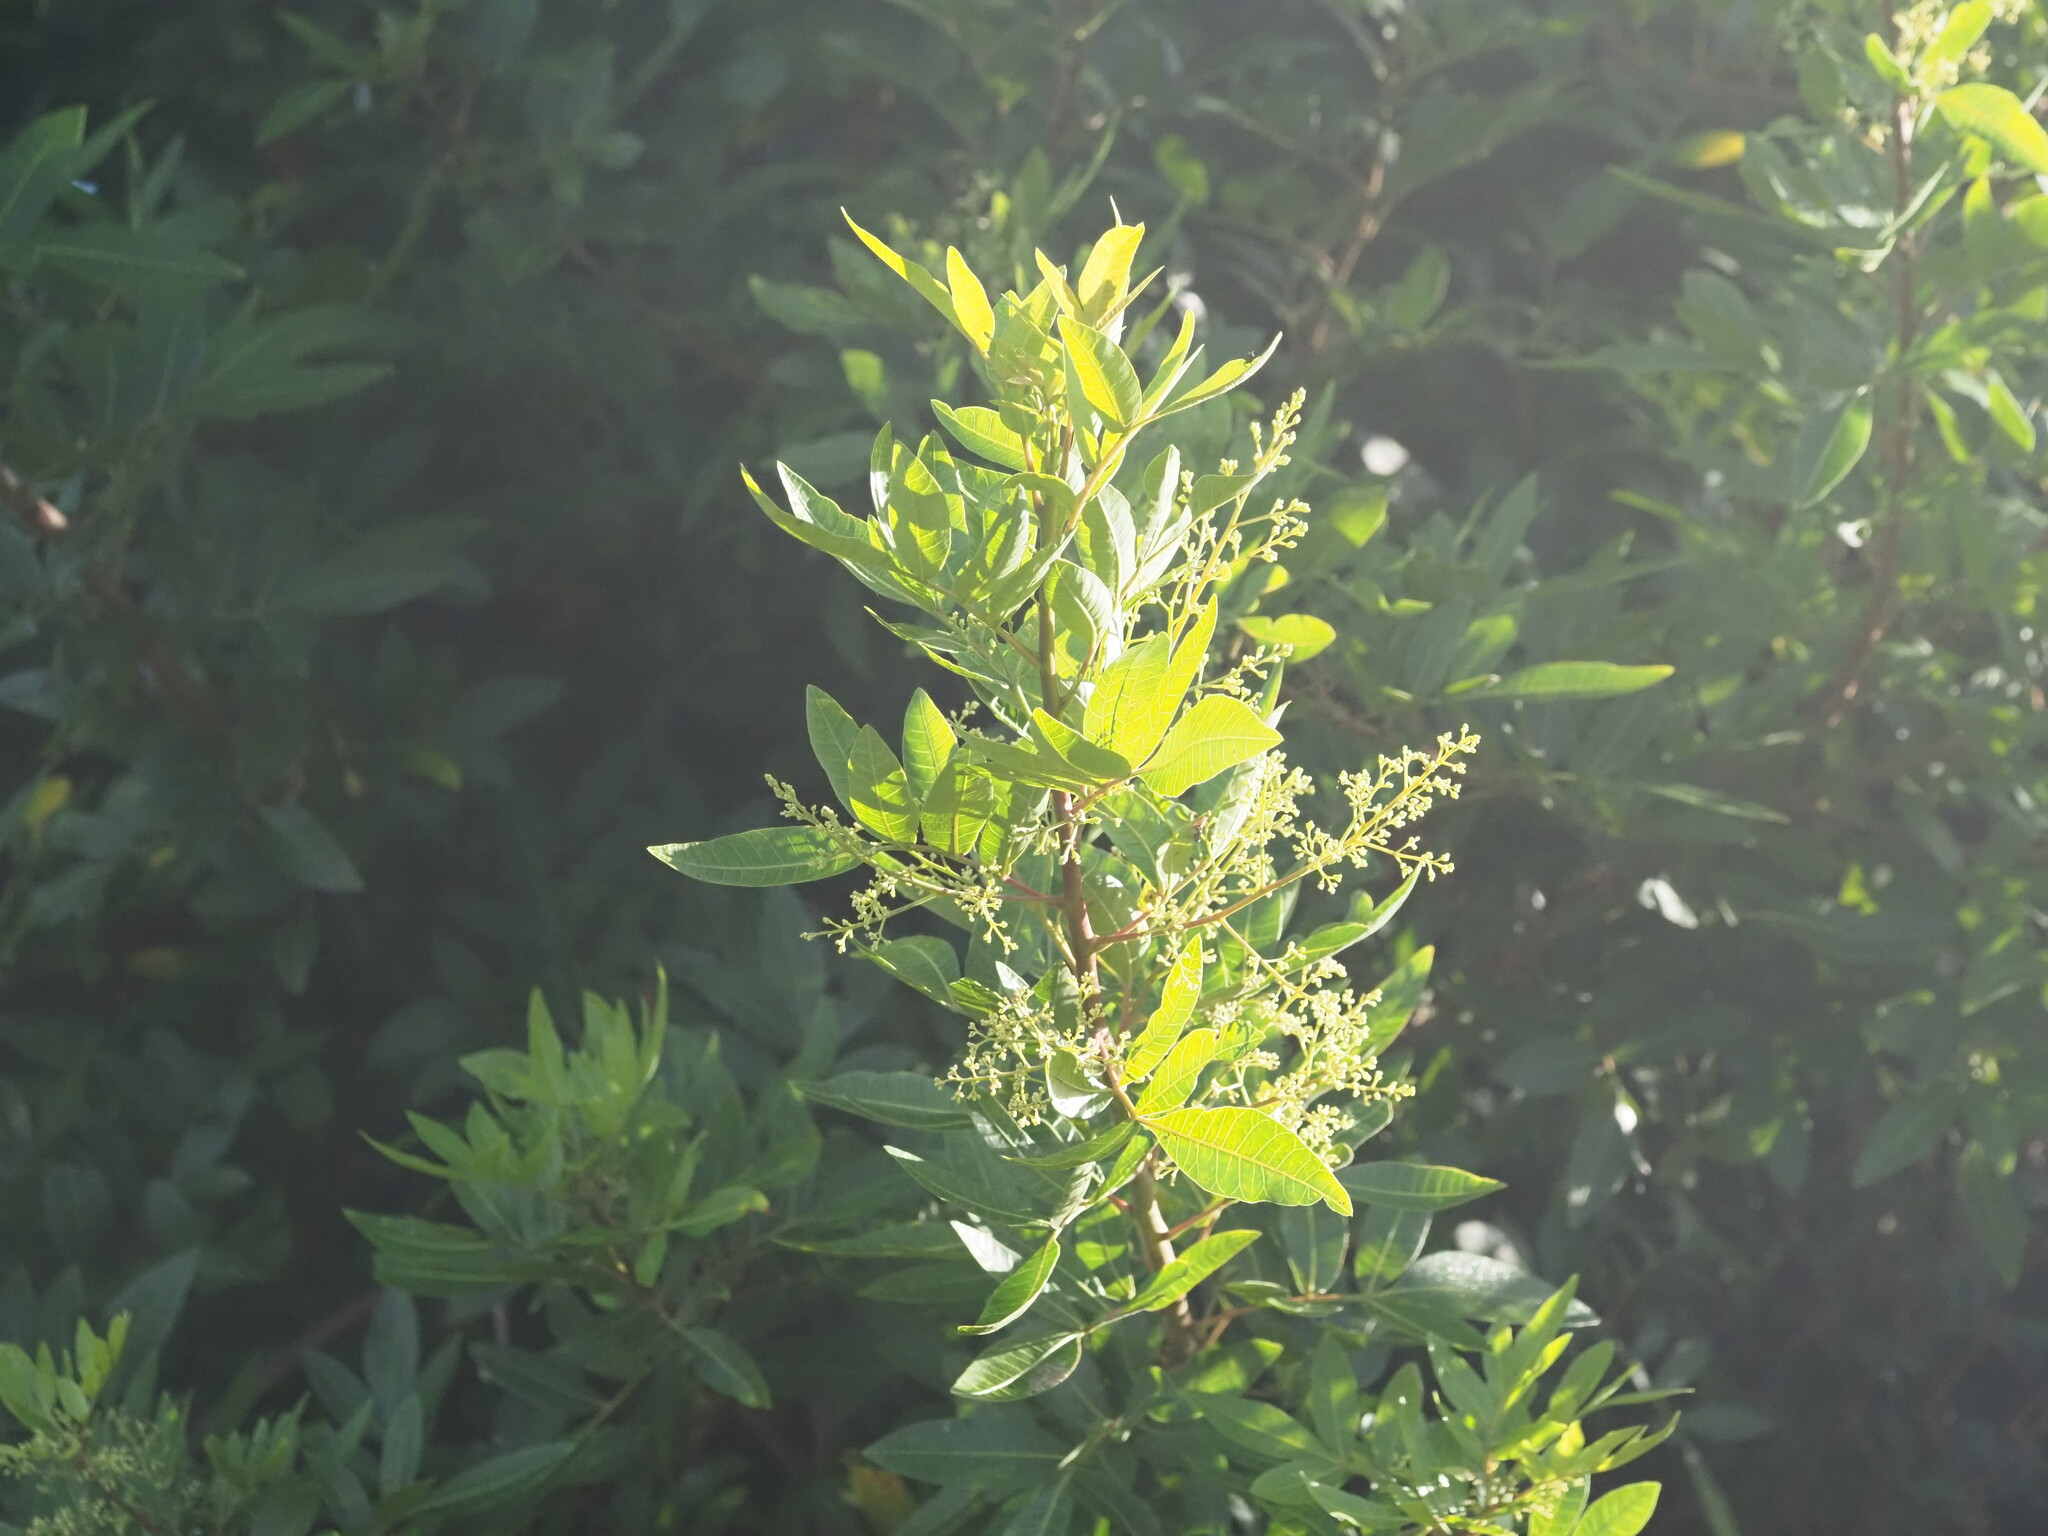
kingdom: Plantae
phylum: Tracheophyta
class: Magnoliopsida
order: Sapindales
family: Anacardiaceae
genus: Schinus
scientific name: Schinus terebinthifolia
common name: Brazilian peppertree
